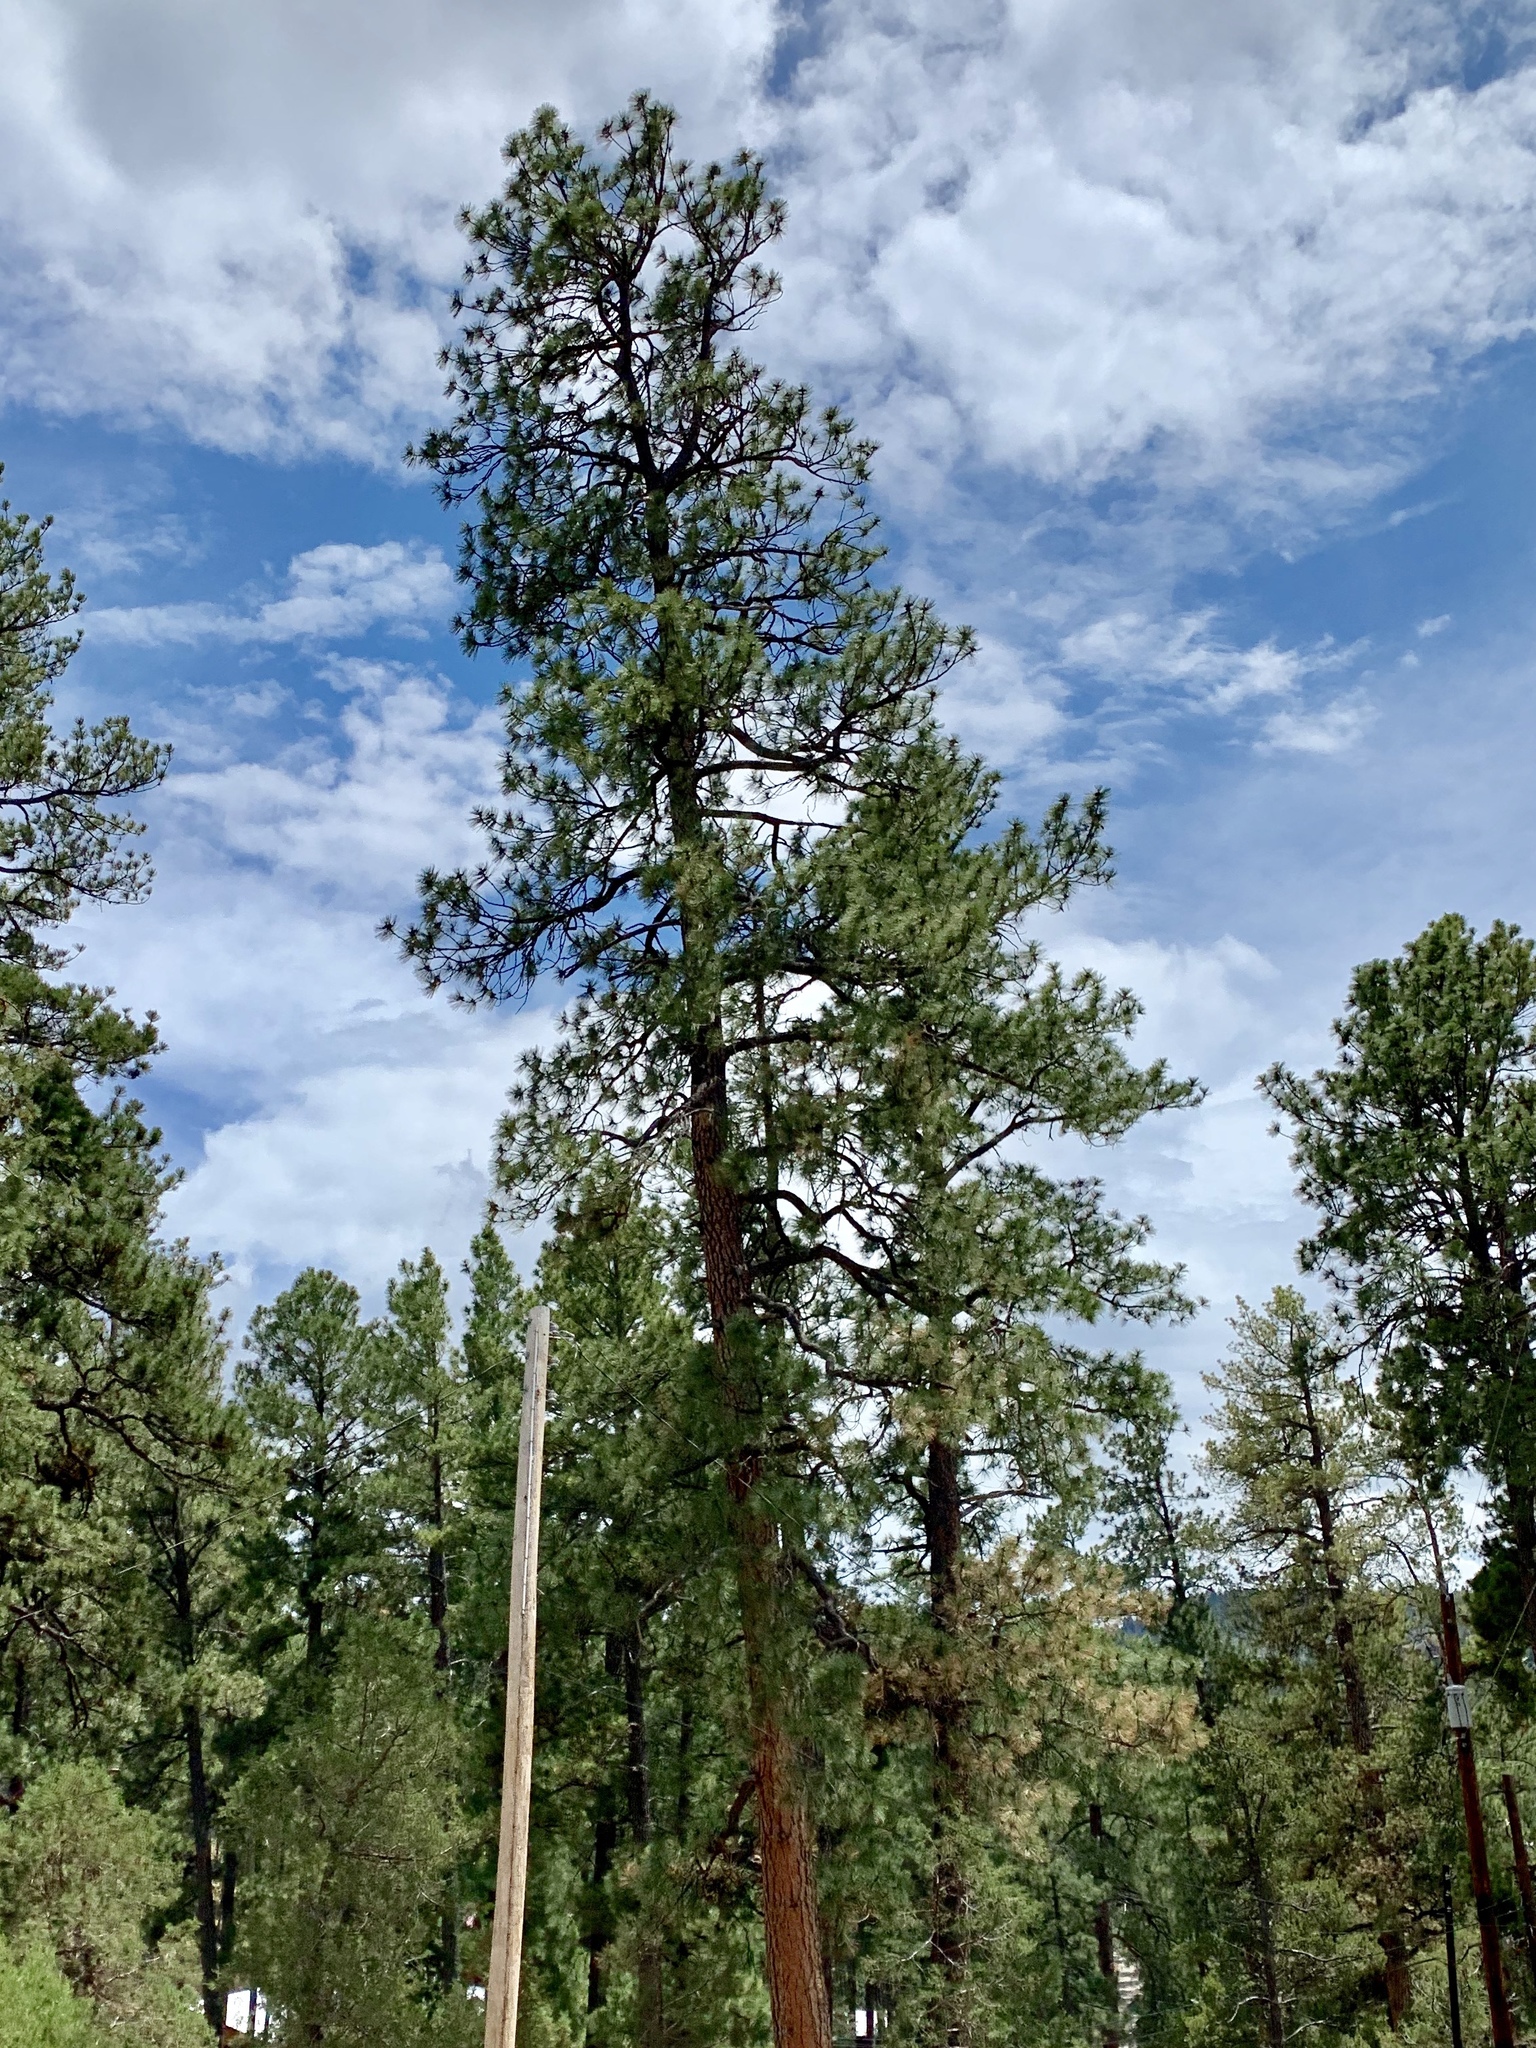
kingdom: Plantae
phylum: Tracheophyta
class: Pinopsida
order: Pinales
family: Pinaceae
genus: Pinus
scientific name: Pinus ponderosa
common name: Western yellow-pine
